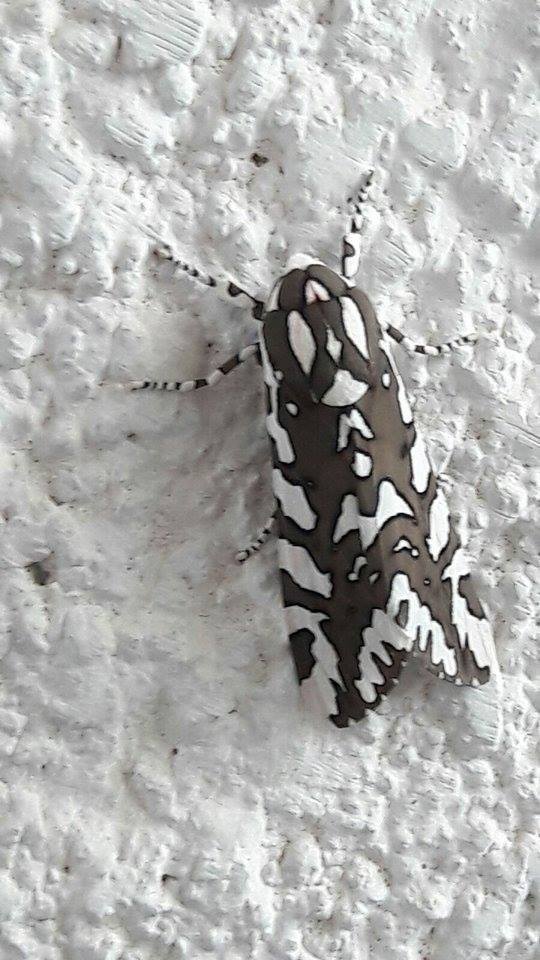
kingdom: Animalia
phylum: Arthropoda
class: Insecta
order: Lepidoptera
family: Erebidae
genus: Arachnis
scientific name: Arachnis dilecta
